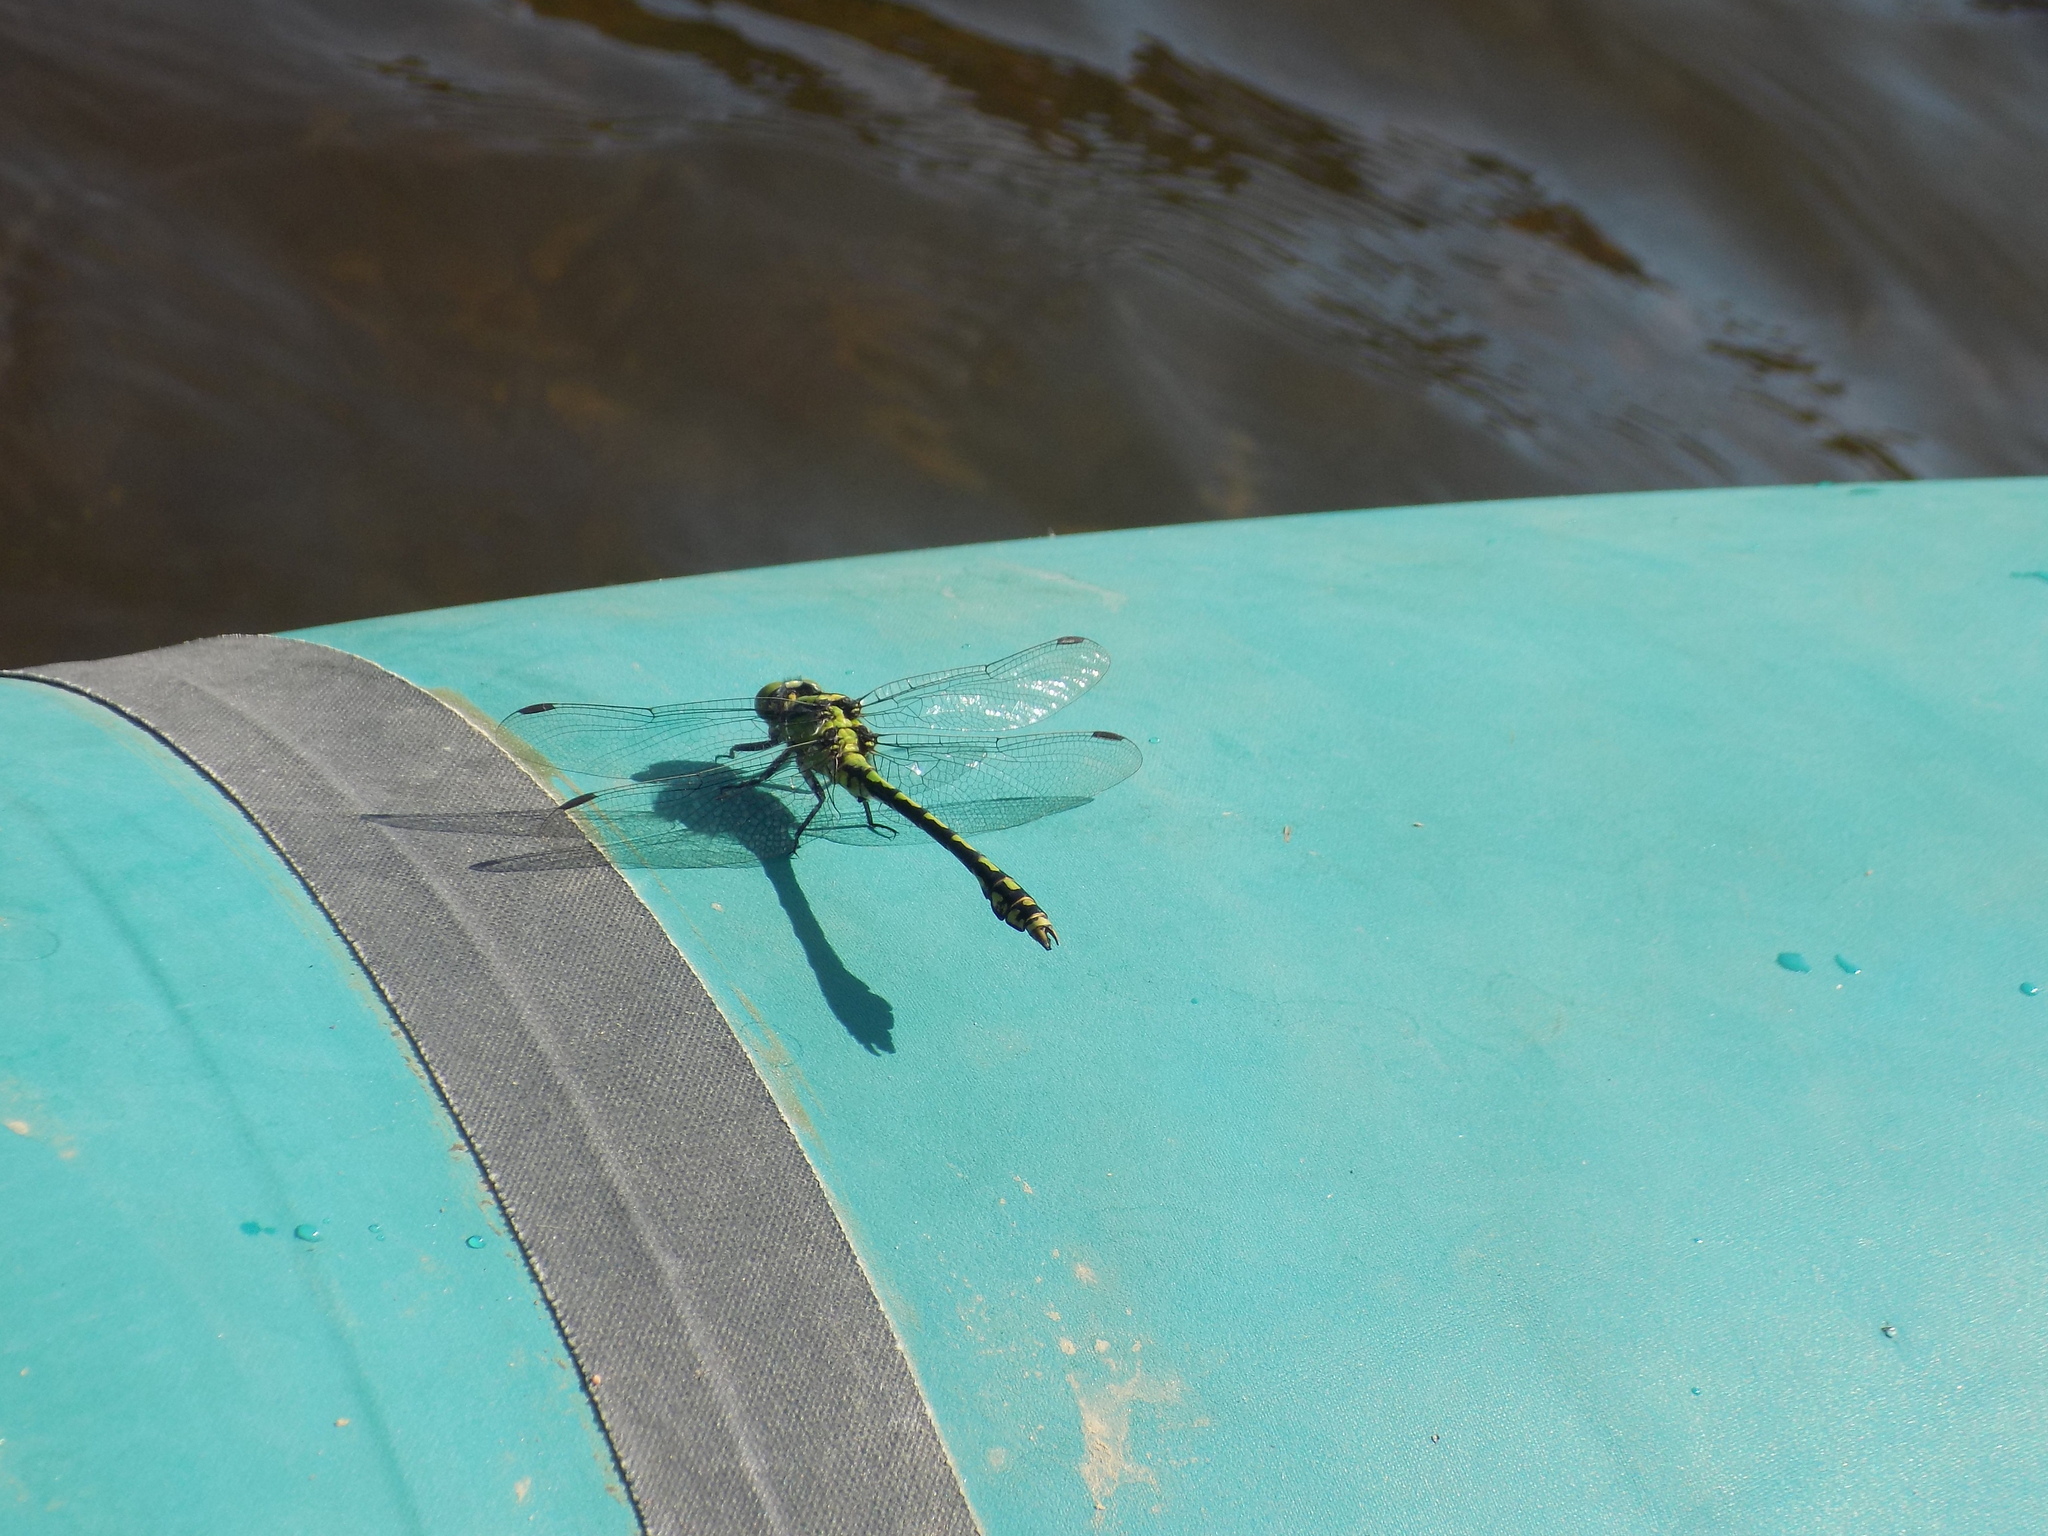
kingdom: Animalia
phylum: Arthropoda
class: Insecta
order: Odonata
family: Gomphidae
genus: Ophiogomphus
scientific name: Ophiogomphus obscurus
